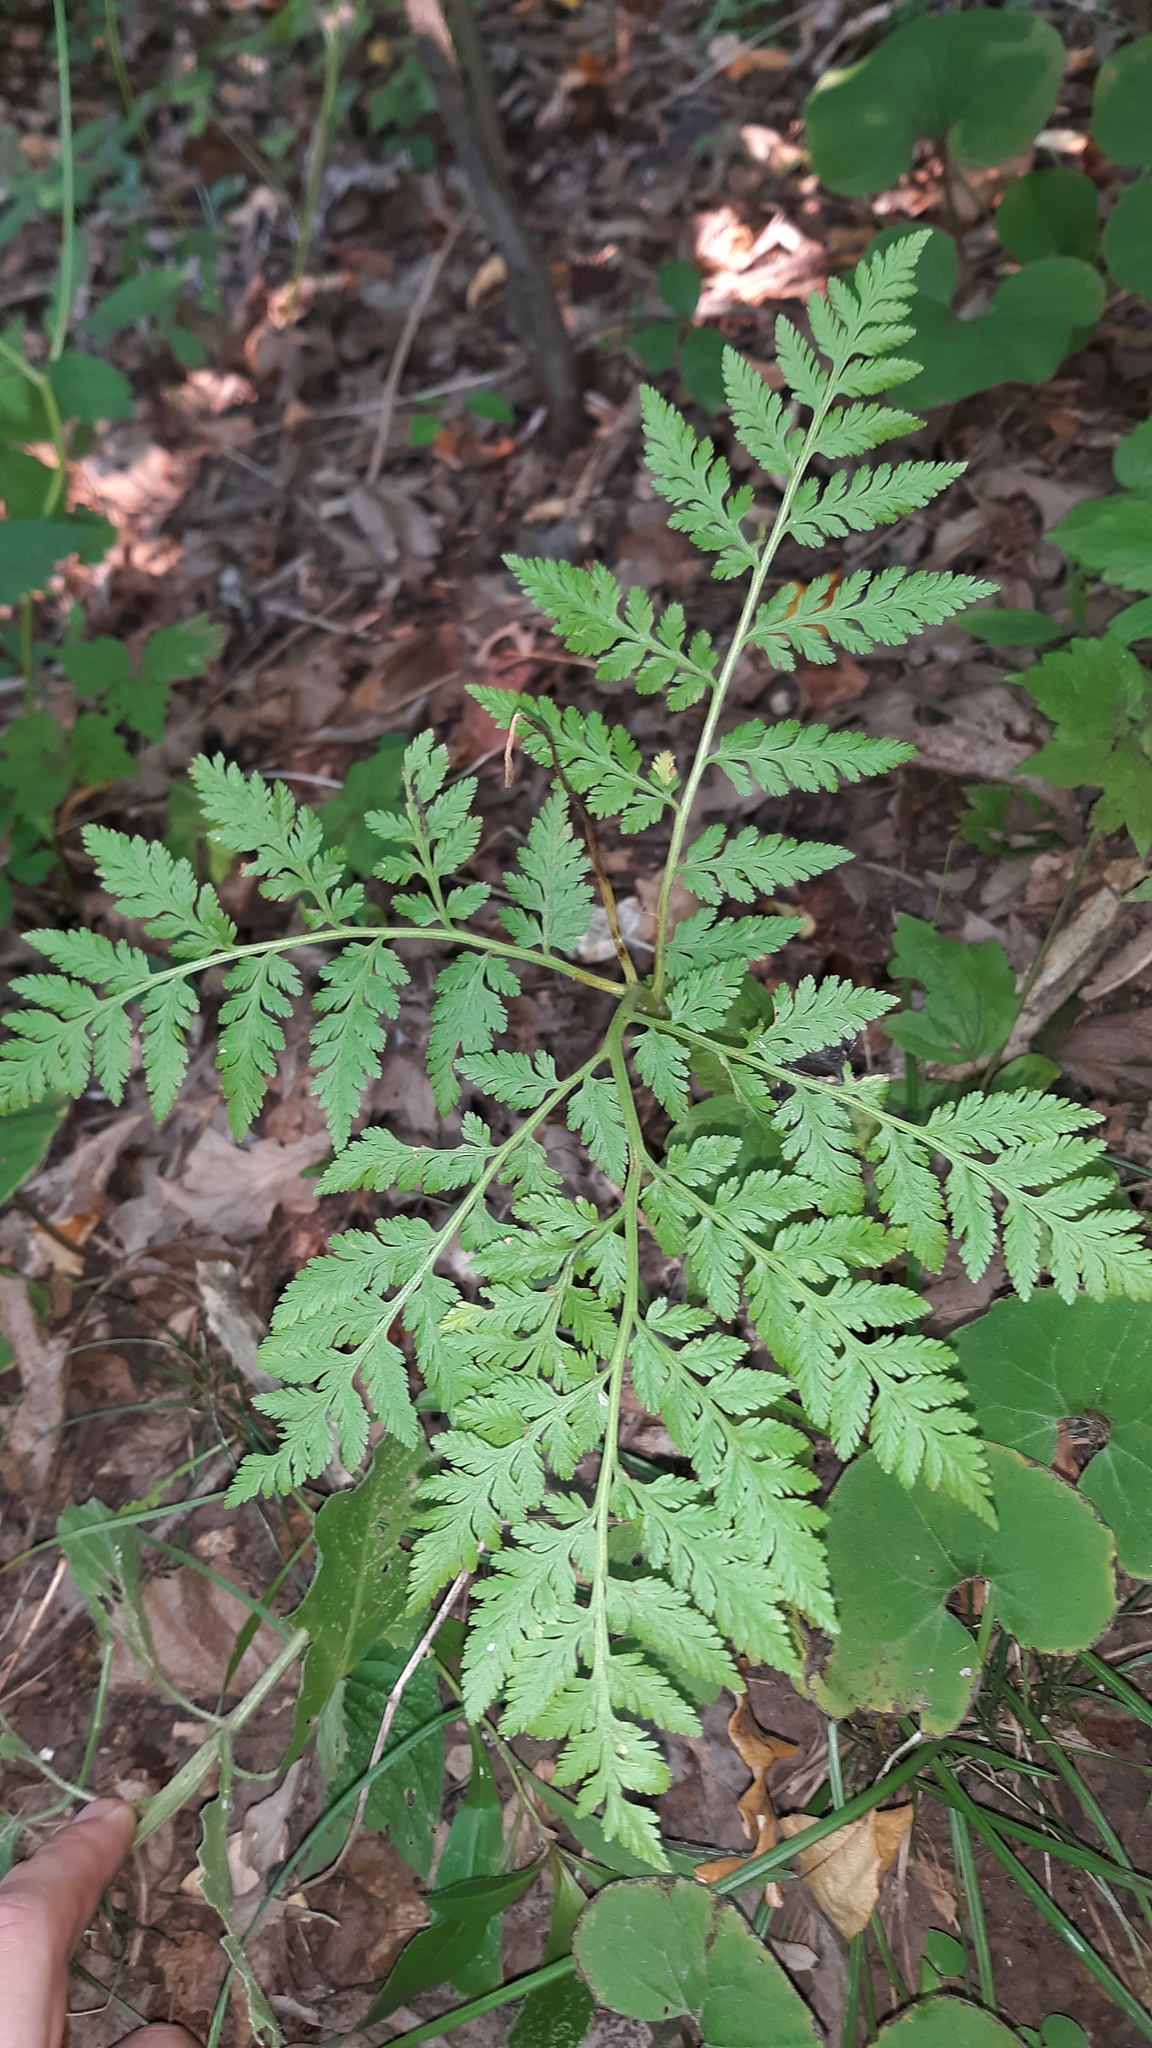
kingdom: Plantae
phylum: Tracheophyta
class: Polypodiopsida
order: Ophioglossales
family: Ophioglossaceae
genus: Botrypus
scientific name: Botrypus virginianus
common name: Common grapefern
